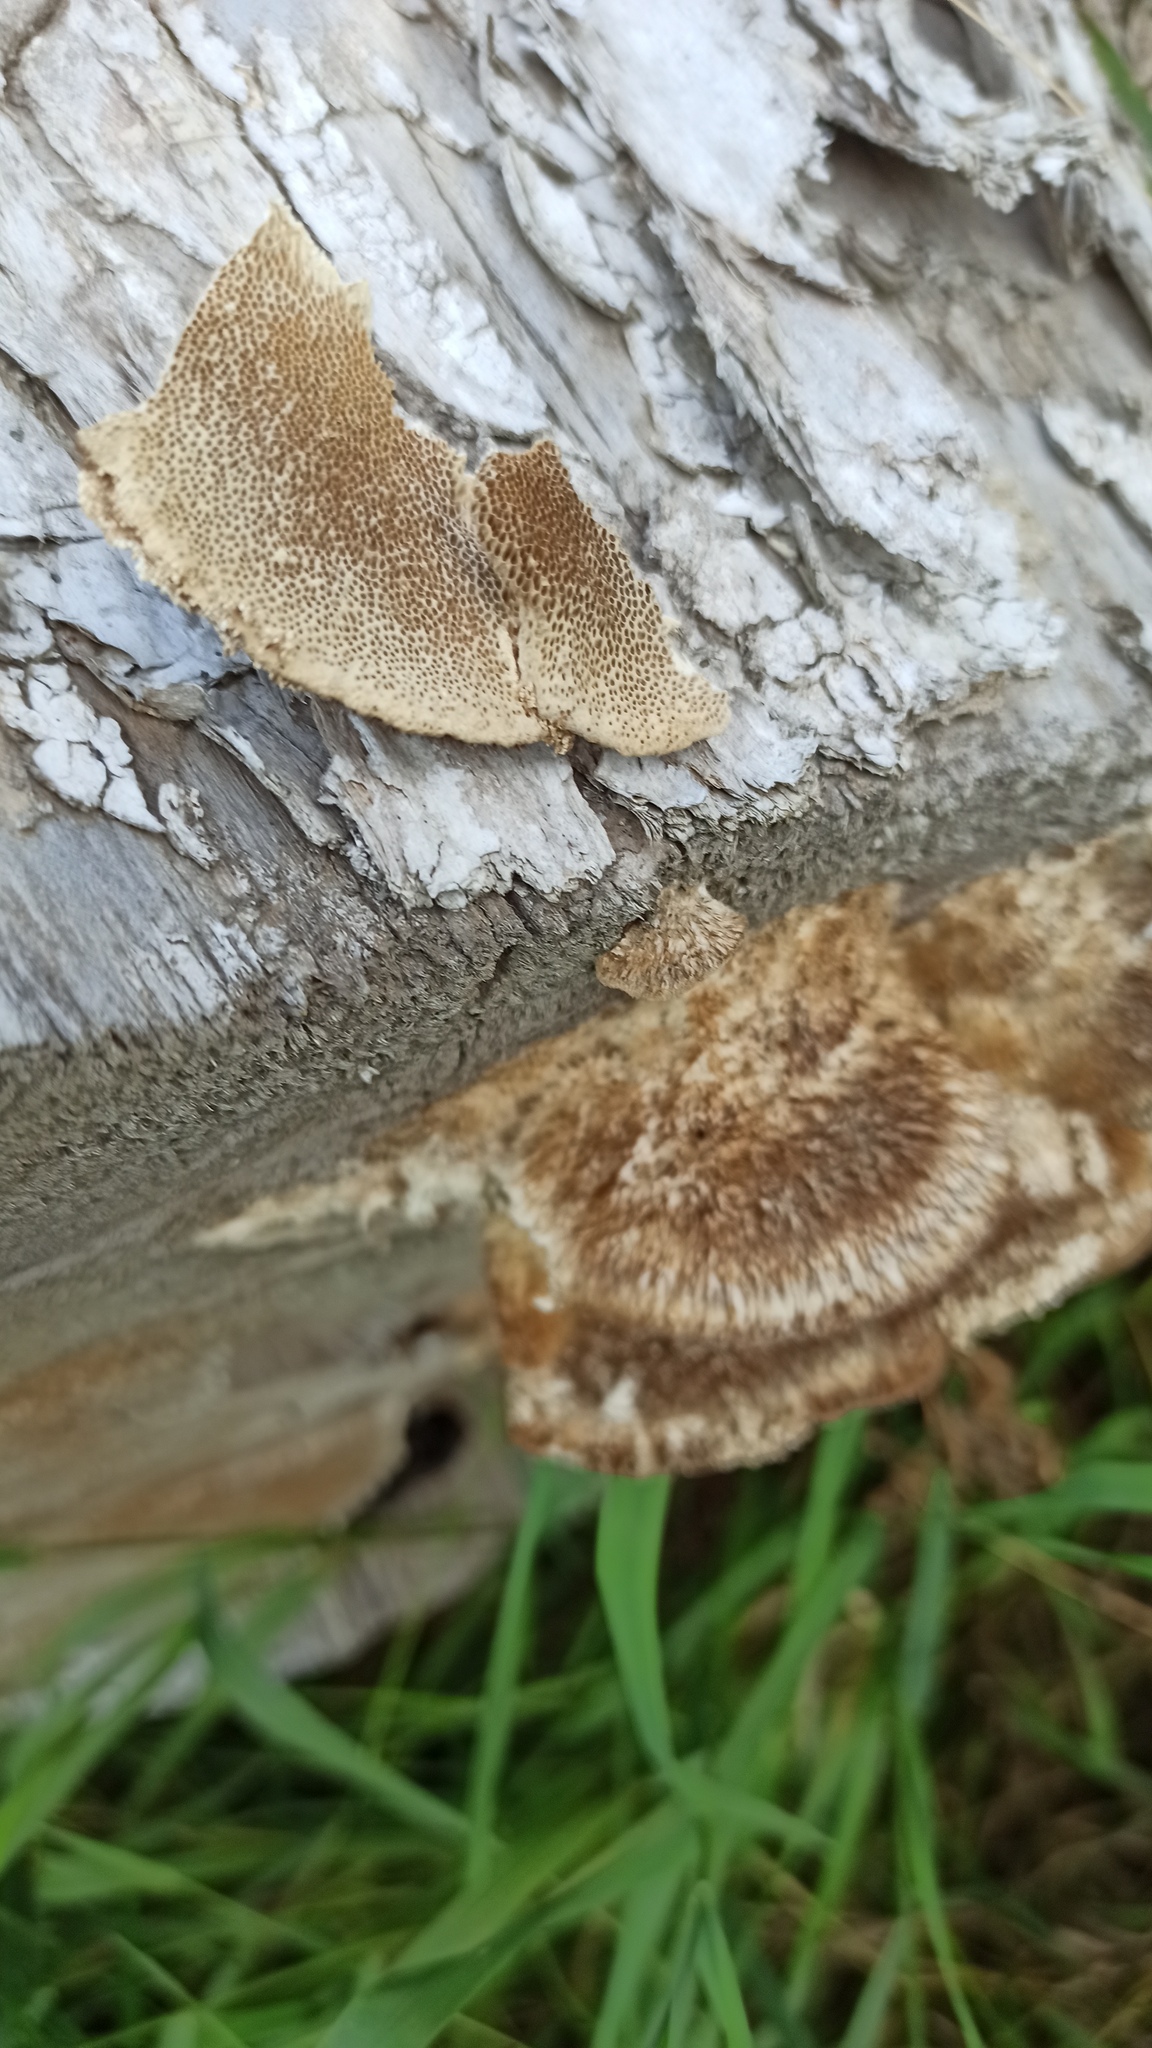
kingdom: Fungi
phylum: Basidiomycota
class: Agaricomycetes
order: Polyporales
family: Polyporaceae
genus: Trametes
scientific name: Trametes trogii
